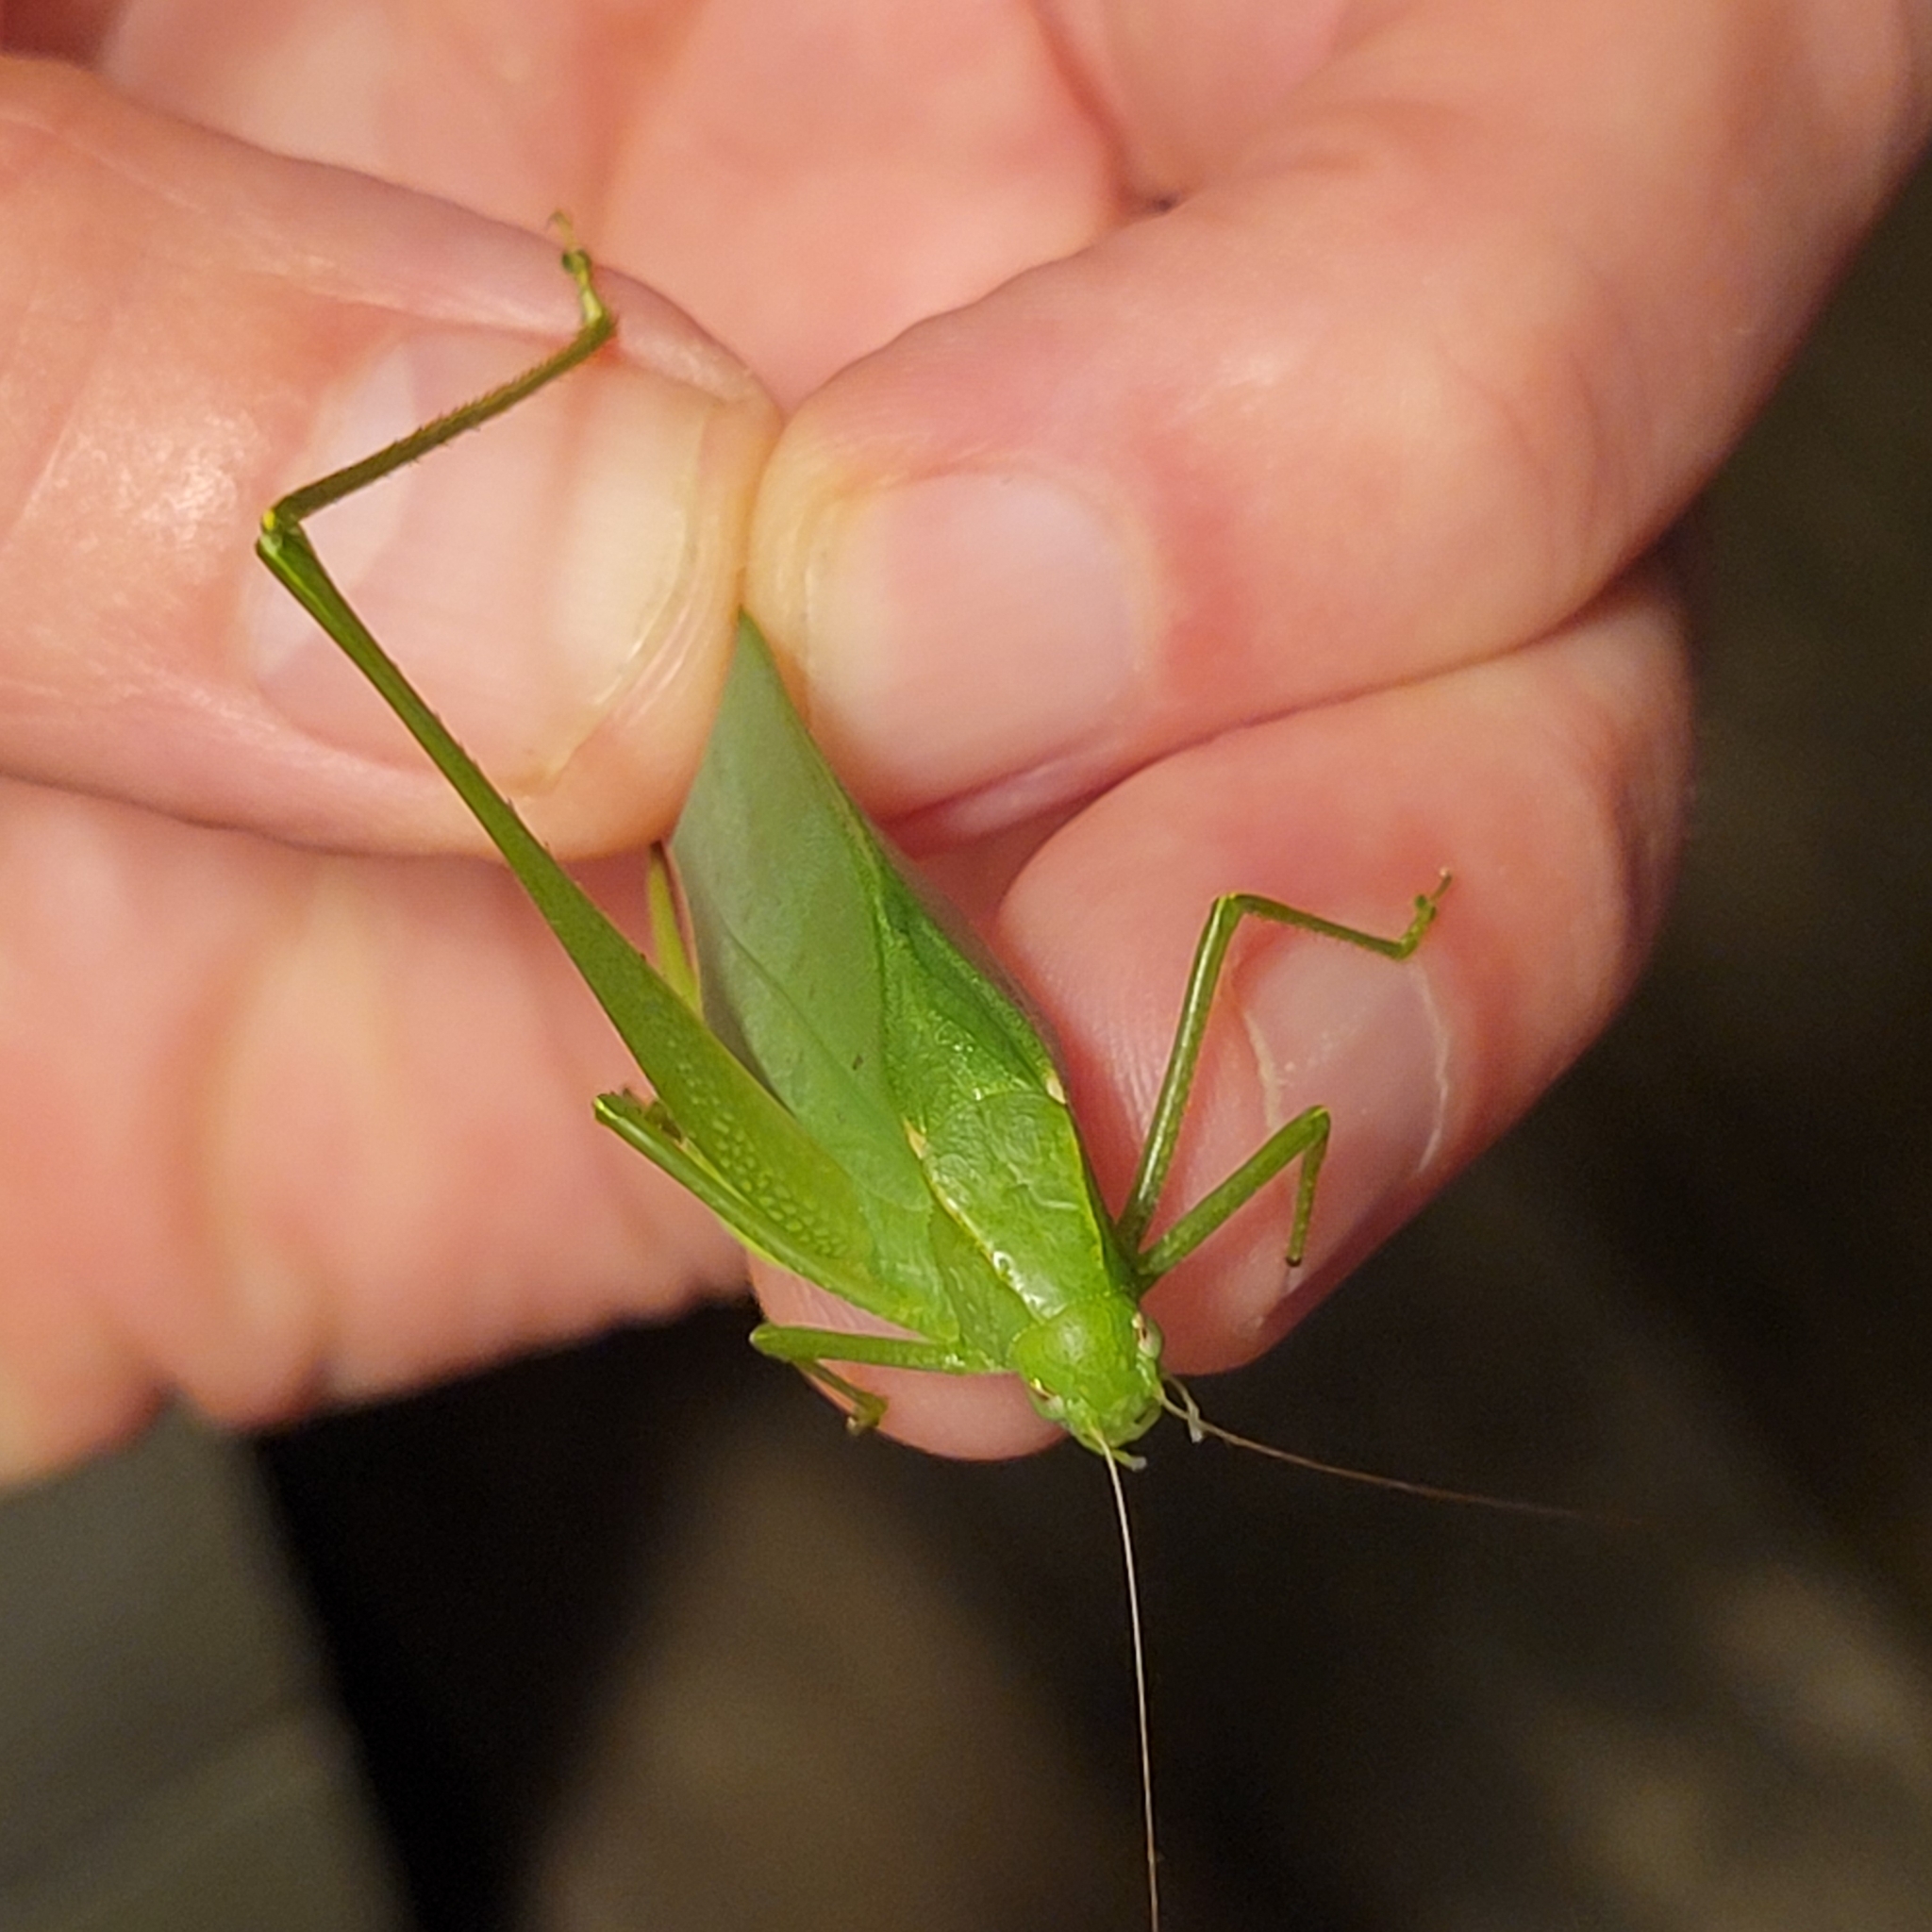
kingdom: Animalia
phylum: Arthropoda
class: Insecta
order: Orthoptera
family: Tettigoniidae
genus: Amblycorypha
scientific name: Amblycorypha rotundifolia
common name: Rattler round-winged katydid
